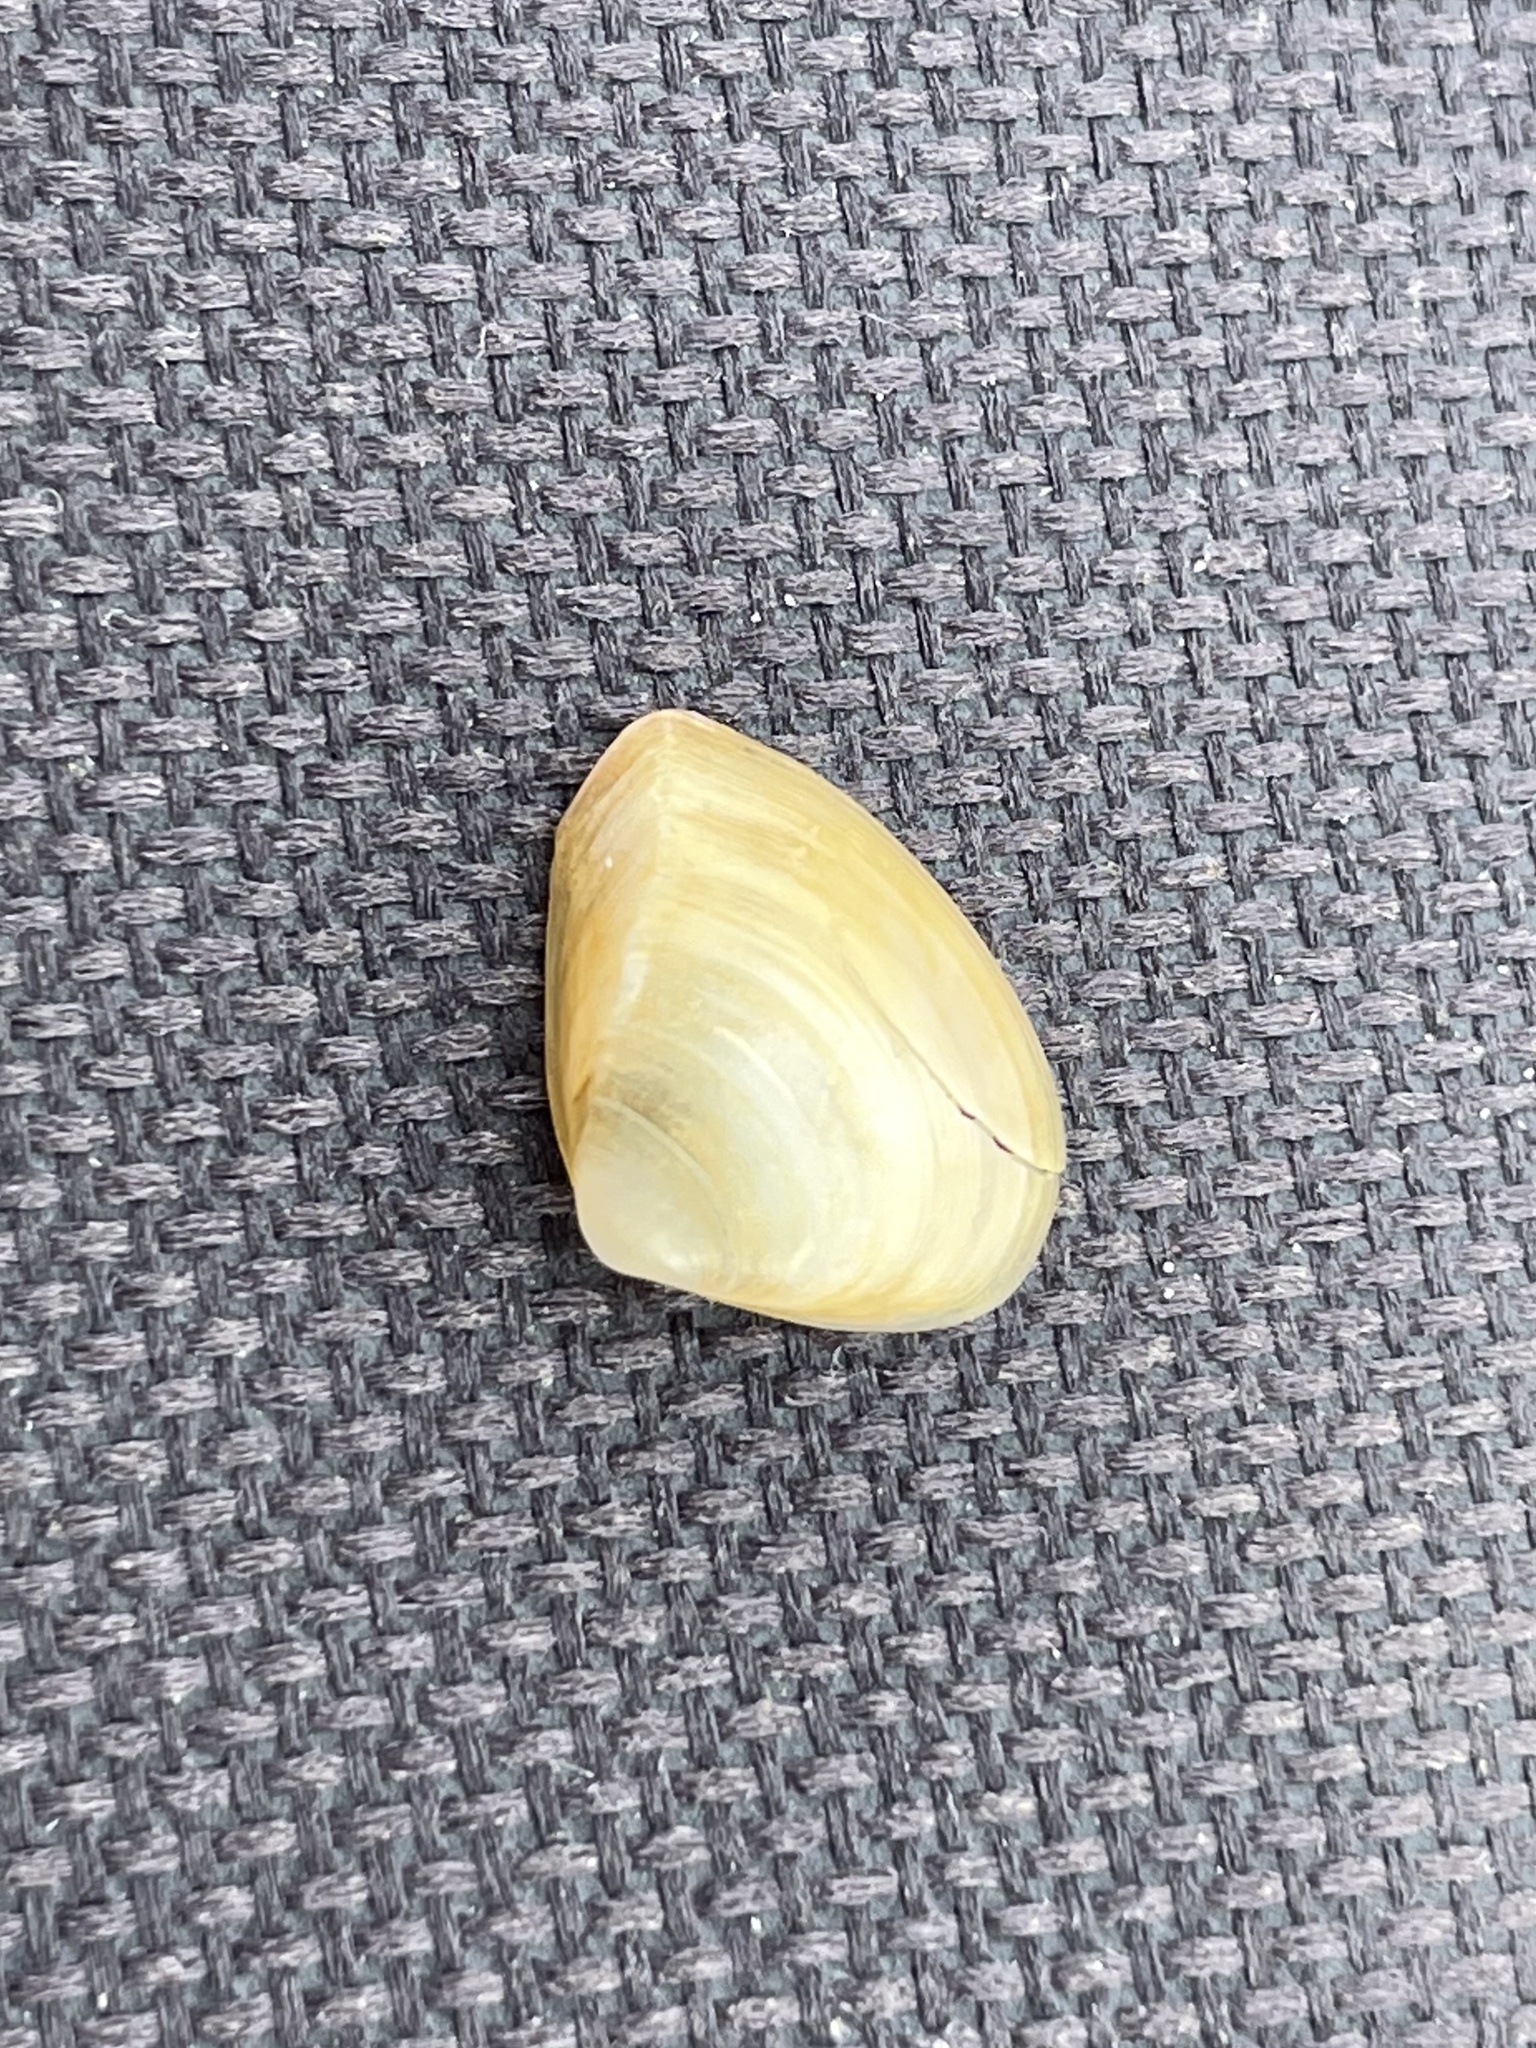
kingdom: Animalia
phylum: Mollusca
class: Bivalvia
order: Venerida
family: Mactridae
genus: Mulinia
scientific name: Mulinia lateralis
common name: Dwarf surfclam
